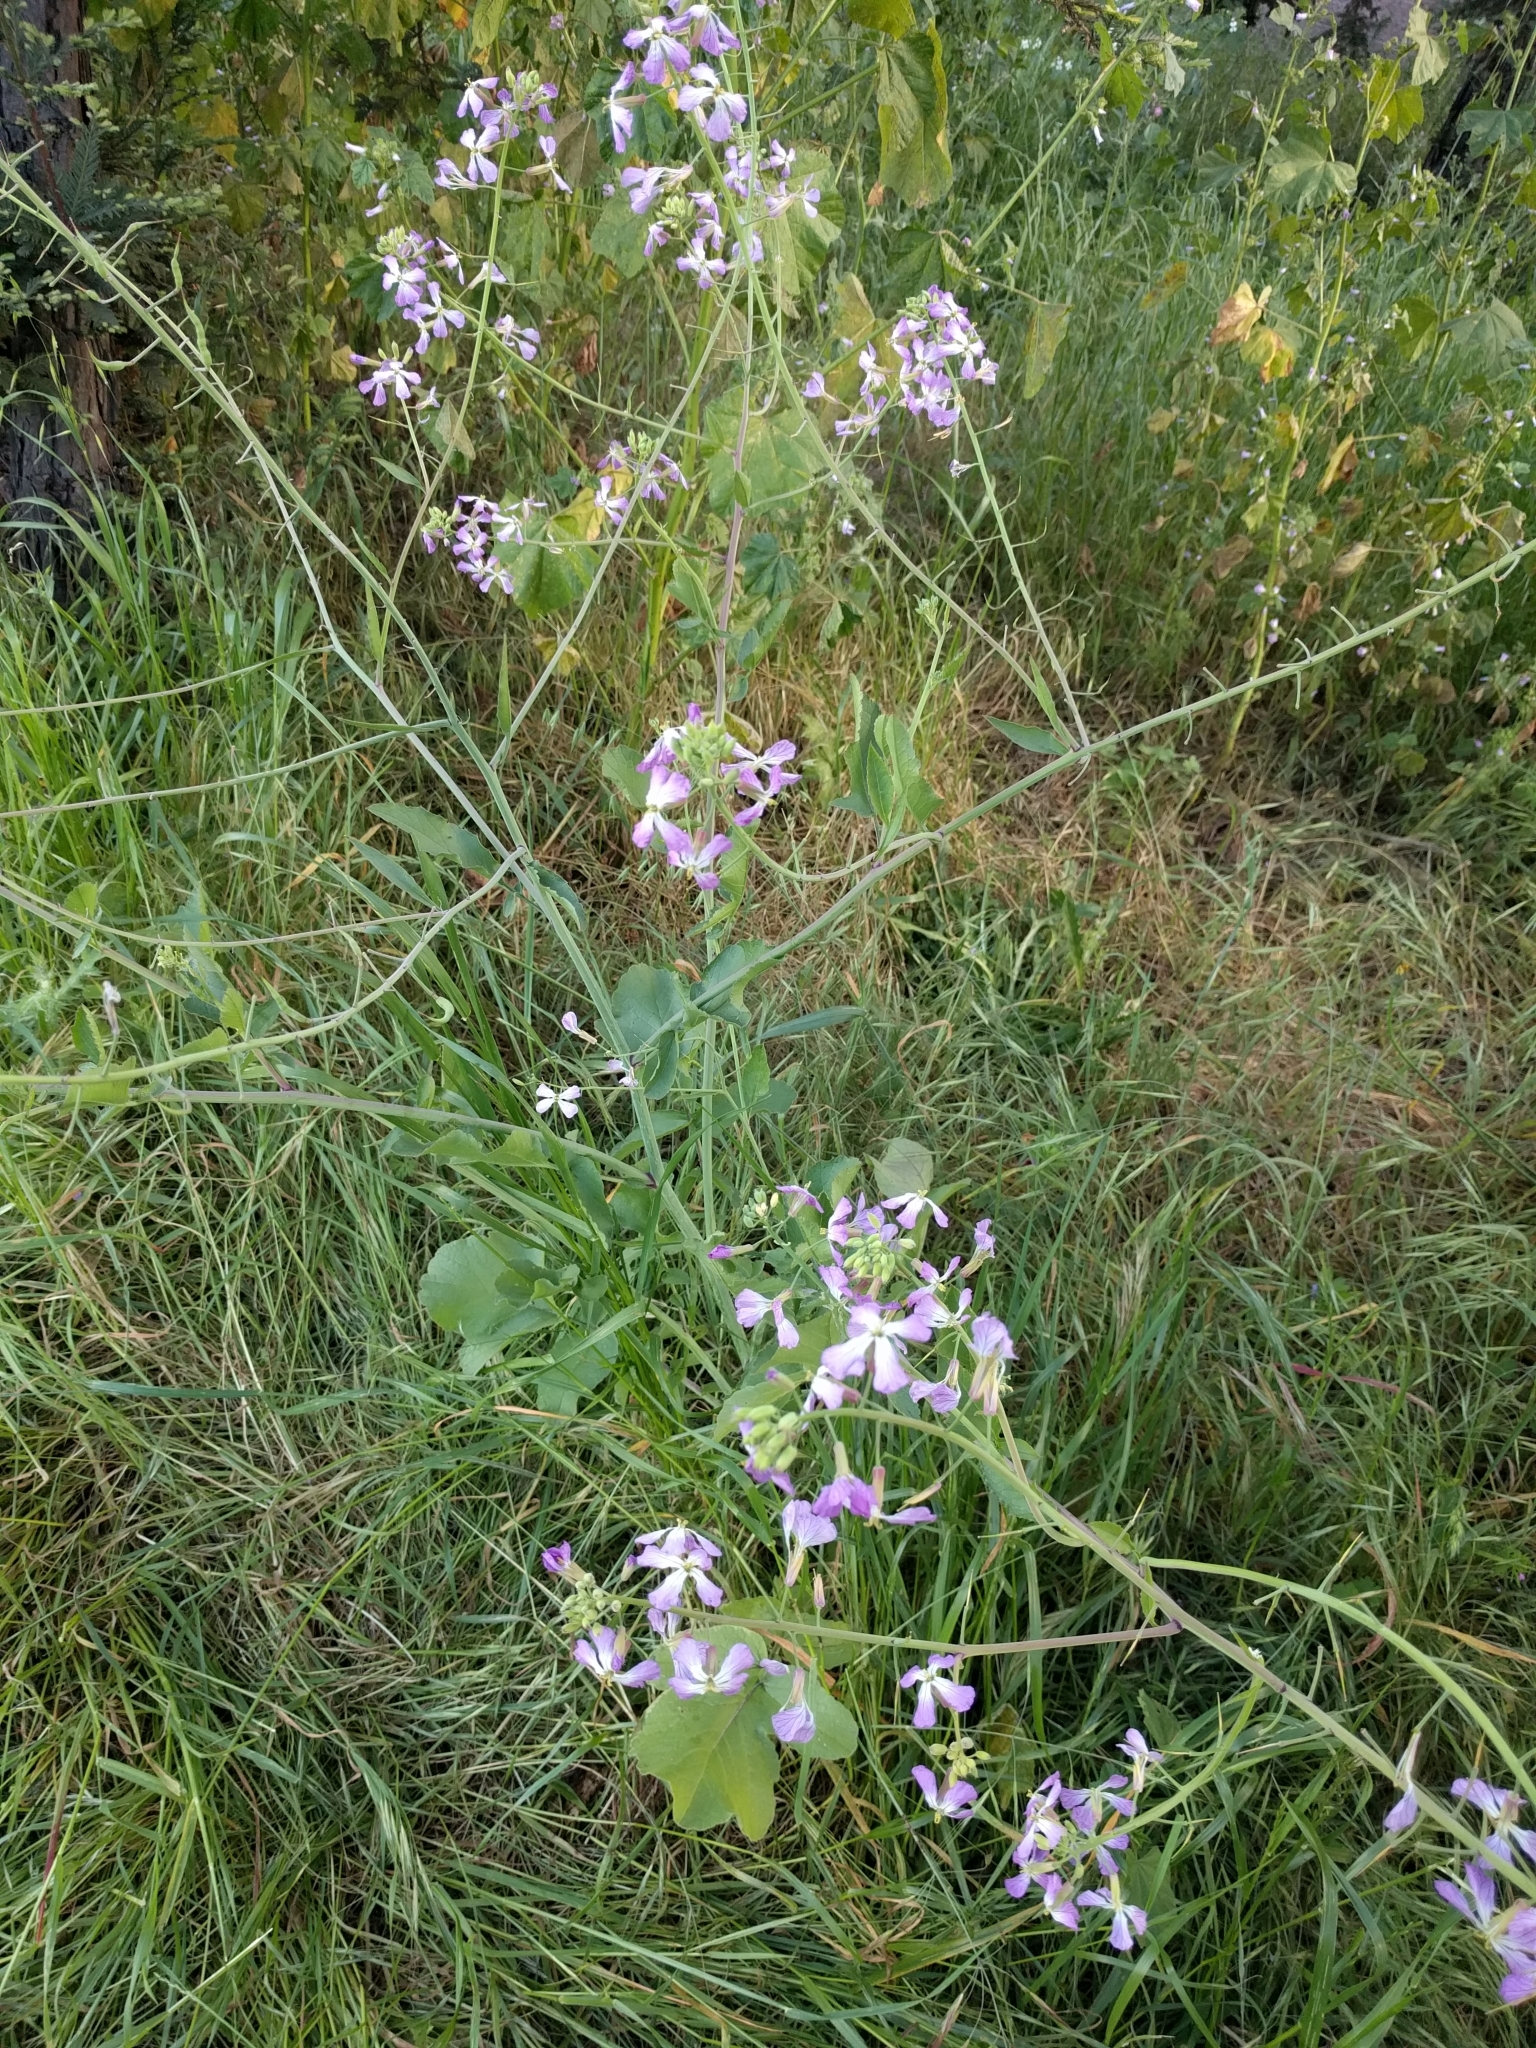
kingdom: Plantae
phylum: Tracheophyta
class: Magnoliopsida
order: Brassicales
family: Brassicaceae
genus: Raphanus
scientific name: Raphanus sativus
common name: Cultivated radish
